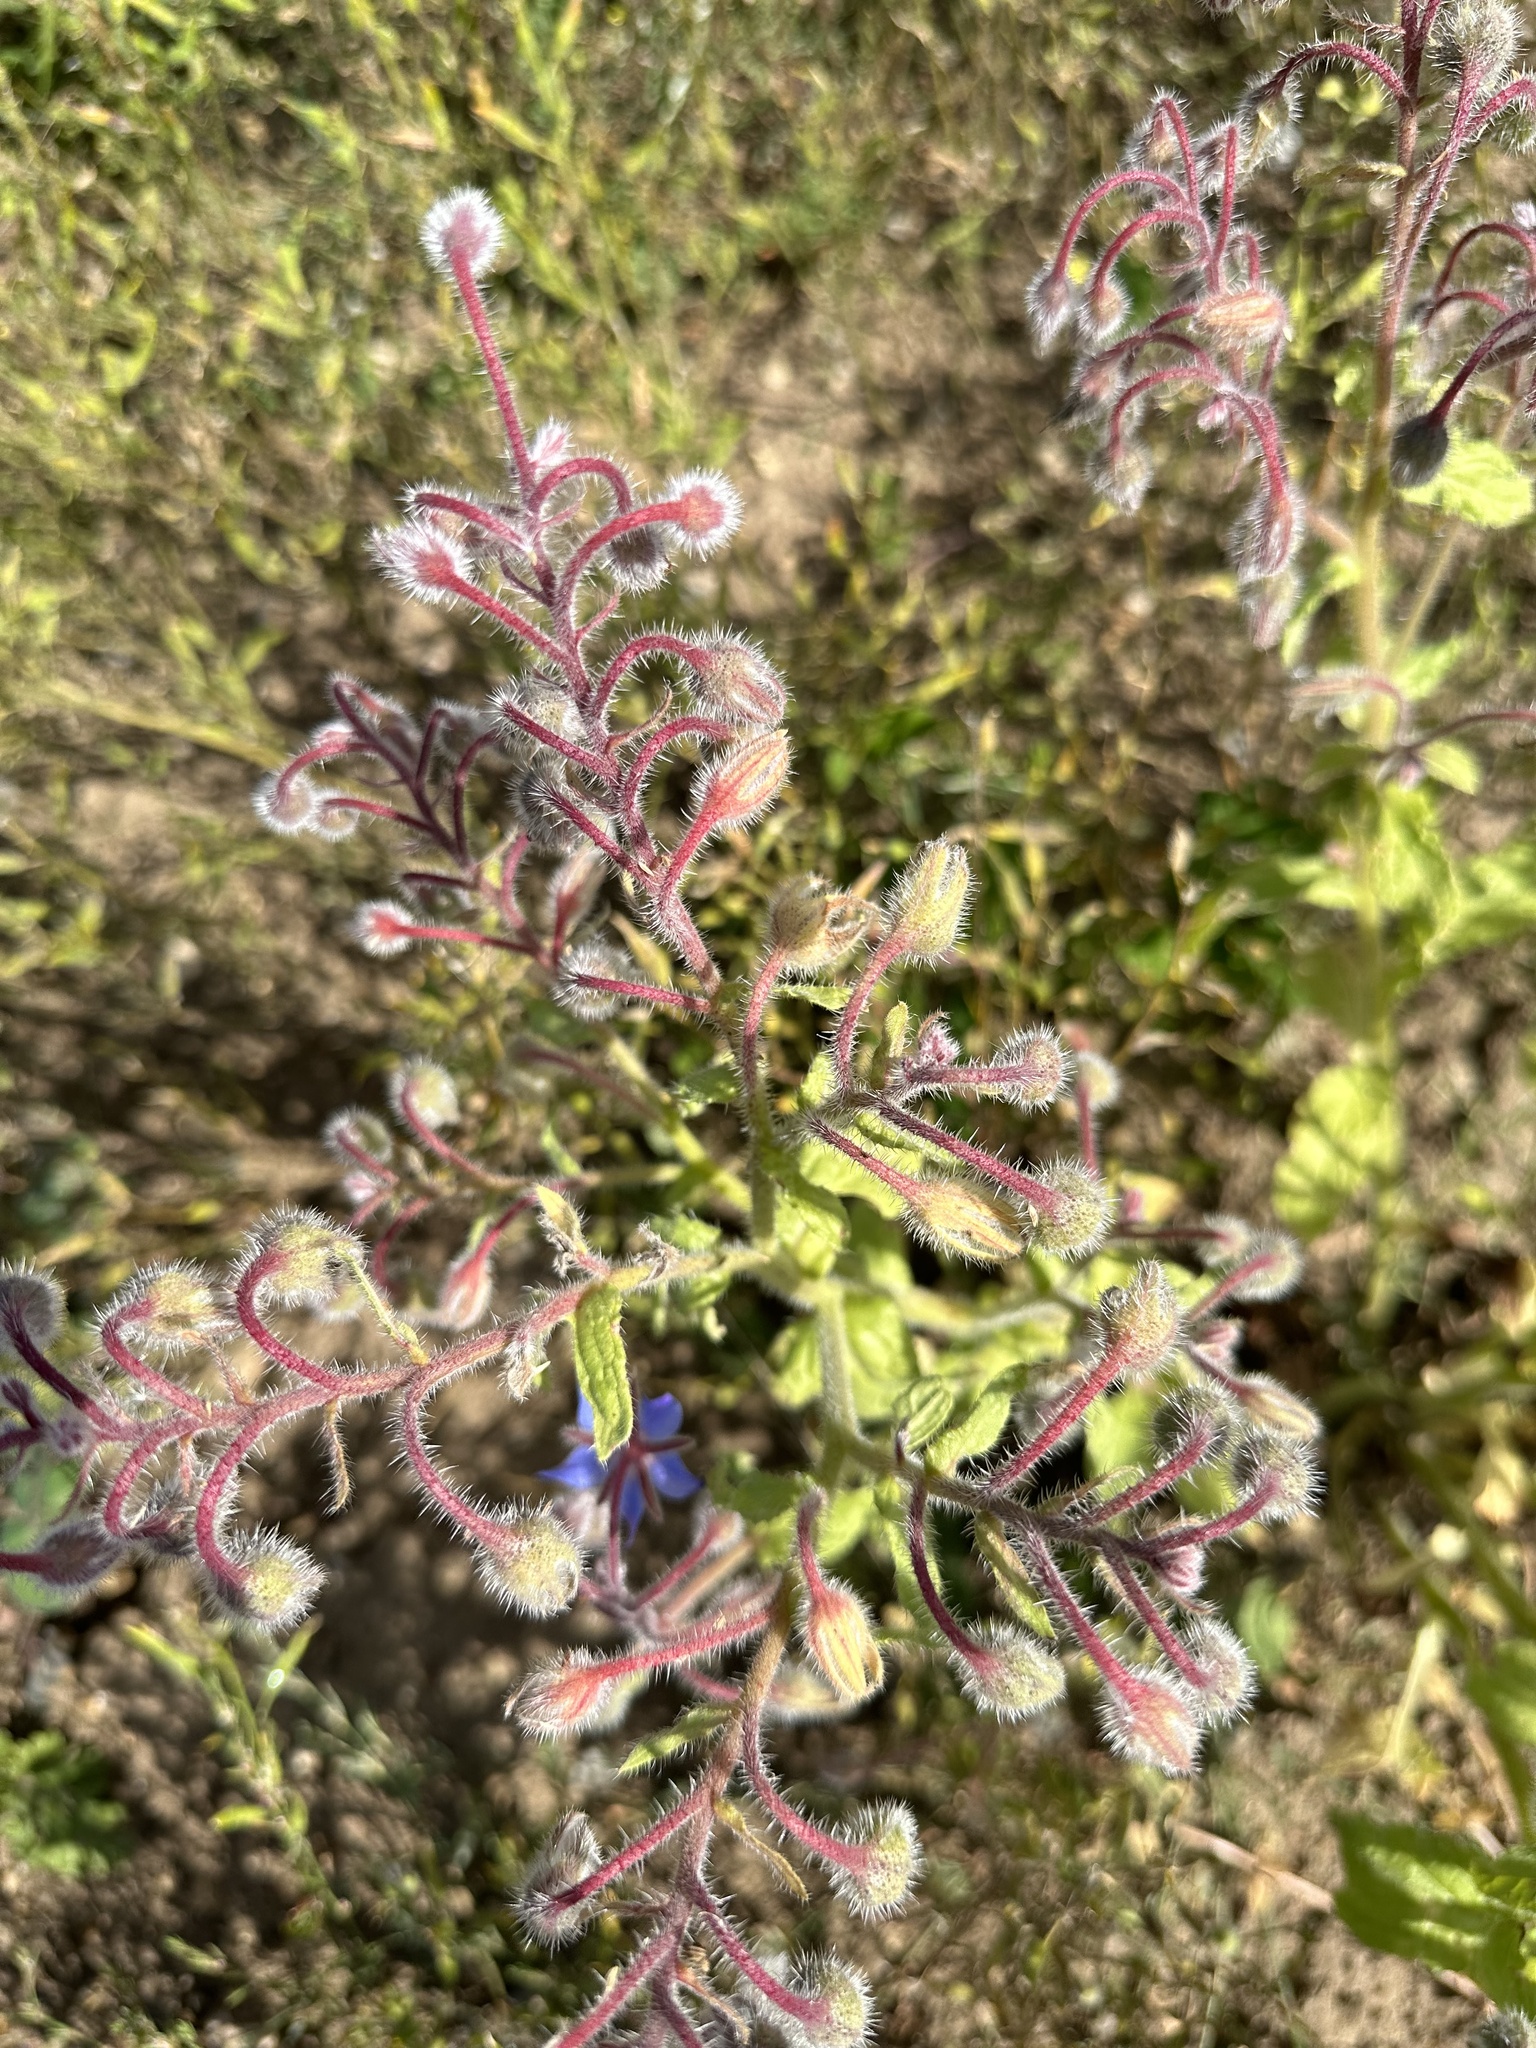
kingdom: Plantae
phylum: Tracheophyta
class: Magnoliopsida
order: Boraginales
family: Boraginaceae
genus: Borago
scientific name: Borago officinalis
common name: Borage
